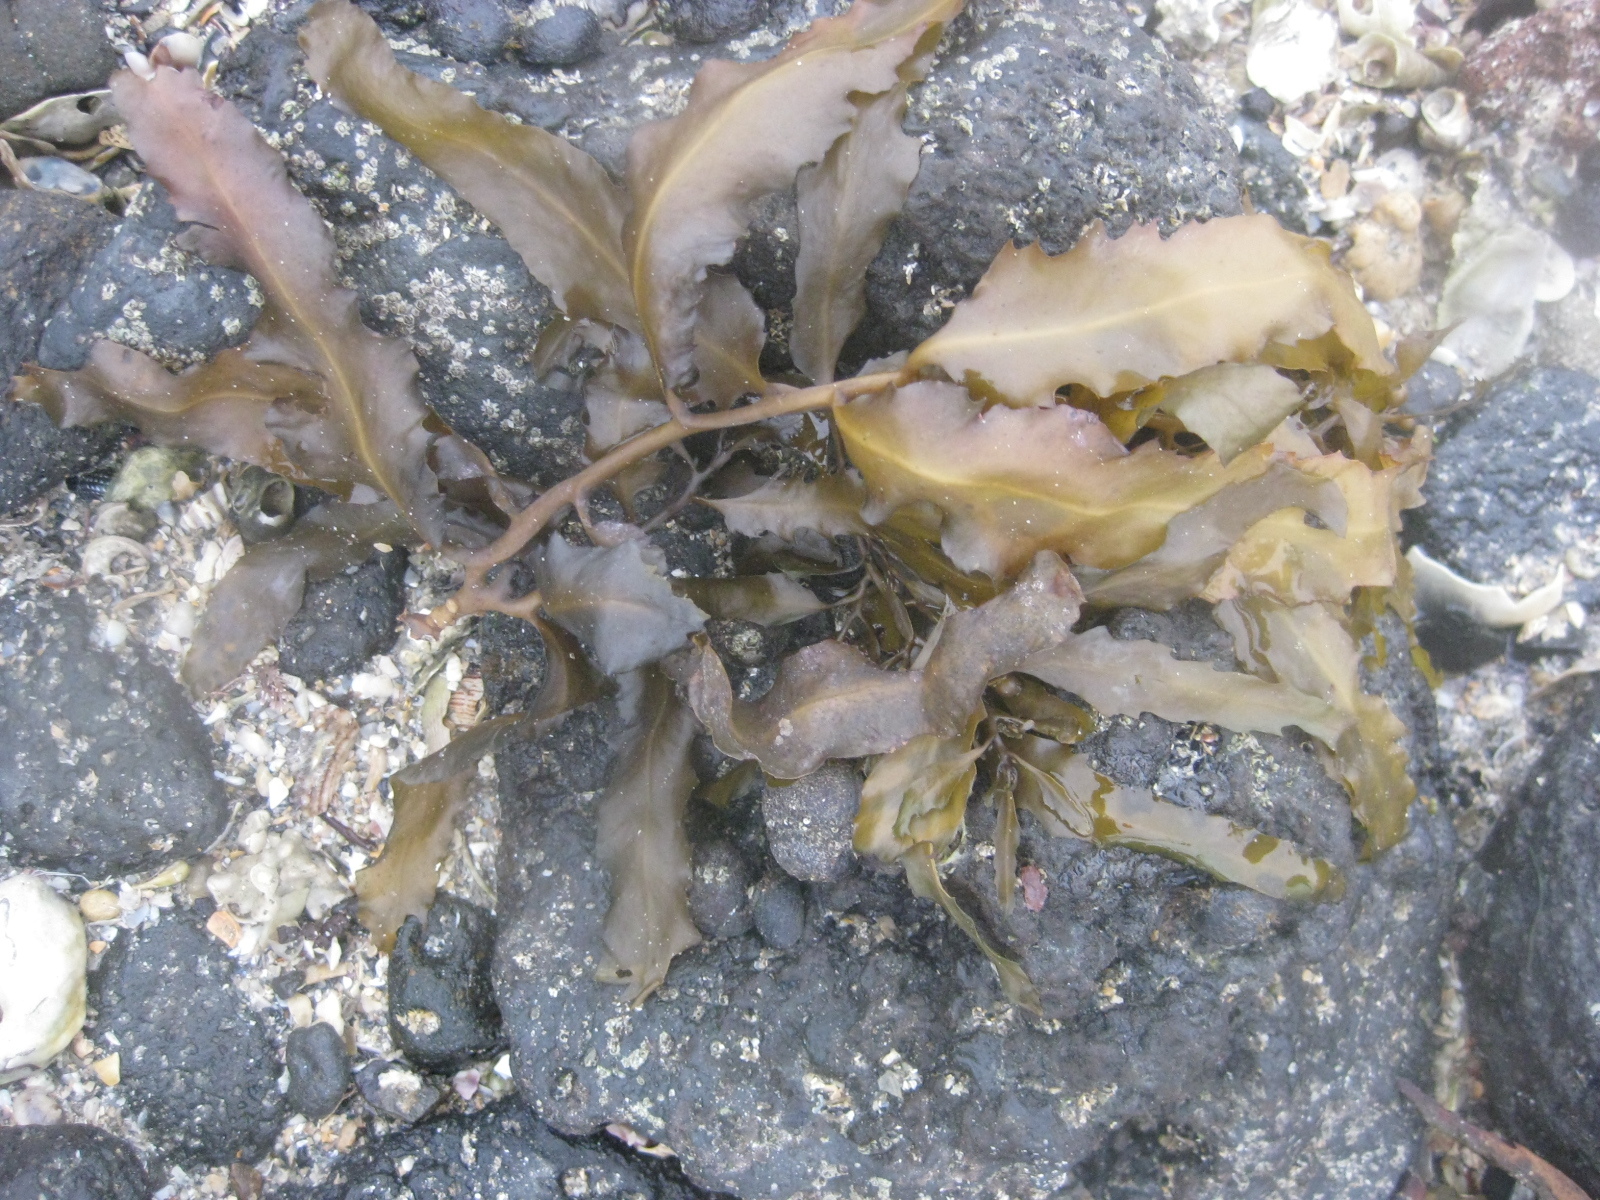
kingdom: Chromista
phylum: Ochrophyta
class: Phaeophyceae
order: Fucales
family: Sargassaceae
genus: Sargassum
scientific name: Sargassum sinclairii
